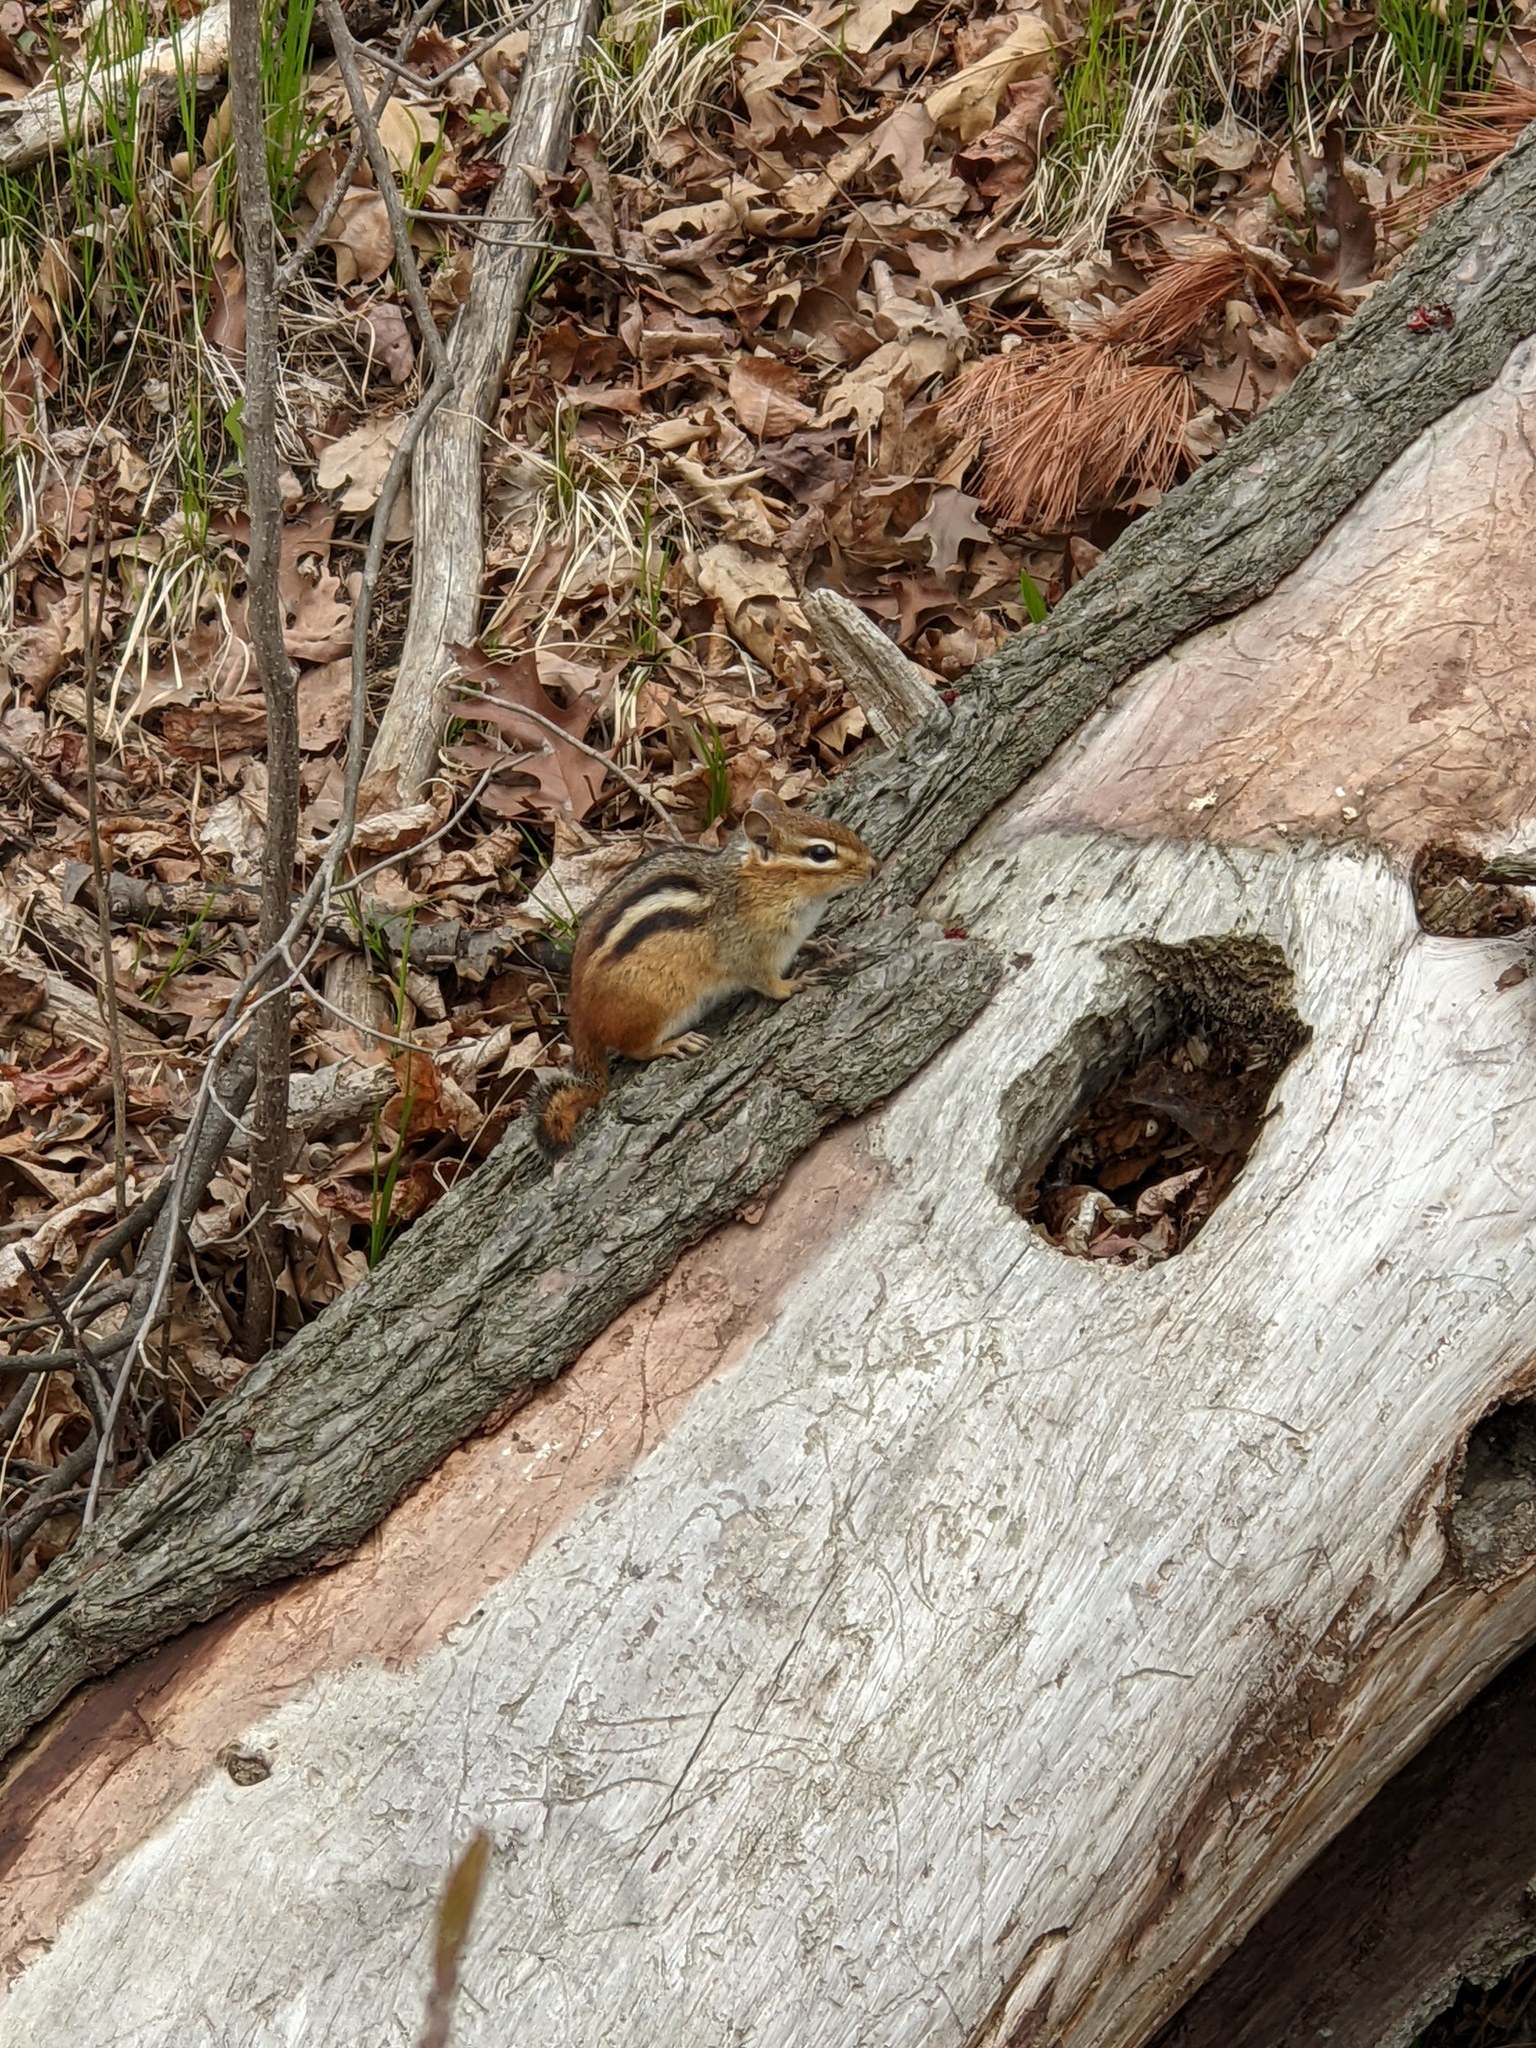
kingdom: Animalia
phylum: Chordata
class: Mammalia
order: Rodentia
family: Sciuridae
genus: Tamias
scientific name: Tamias striatus
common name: Eastern chipmunk
